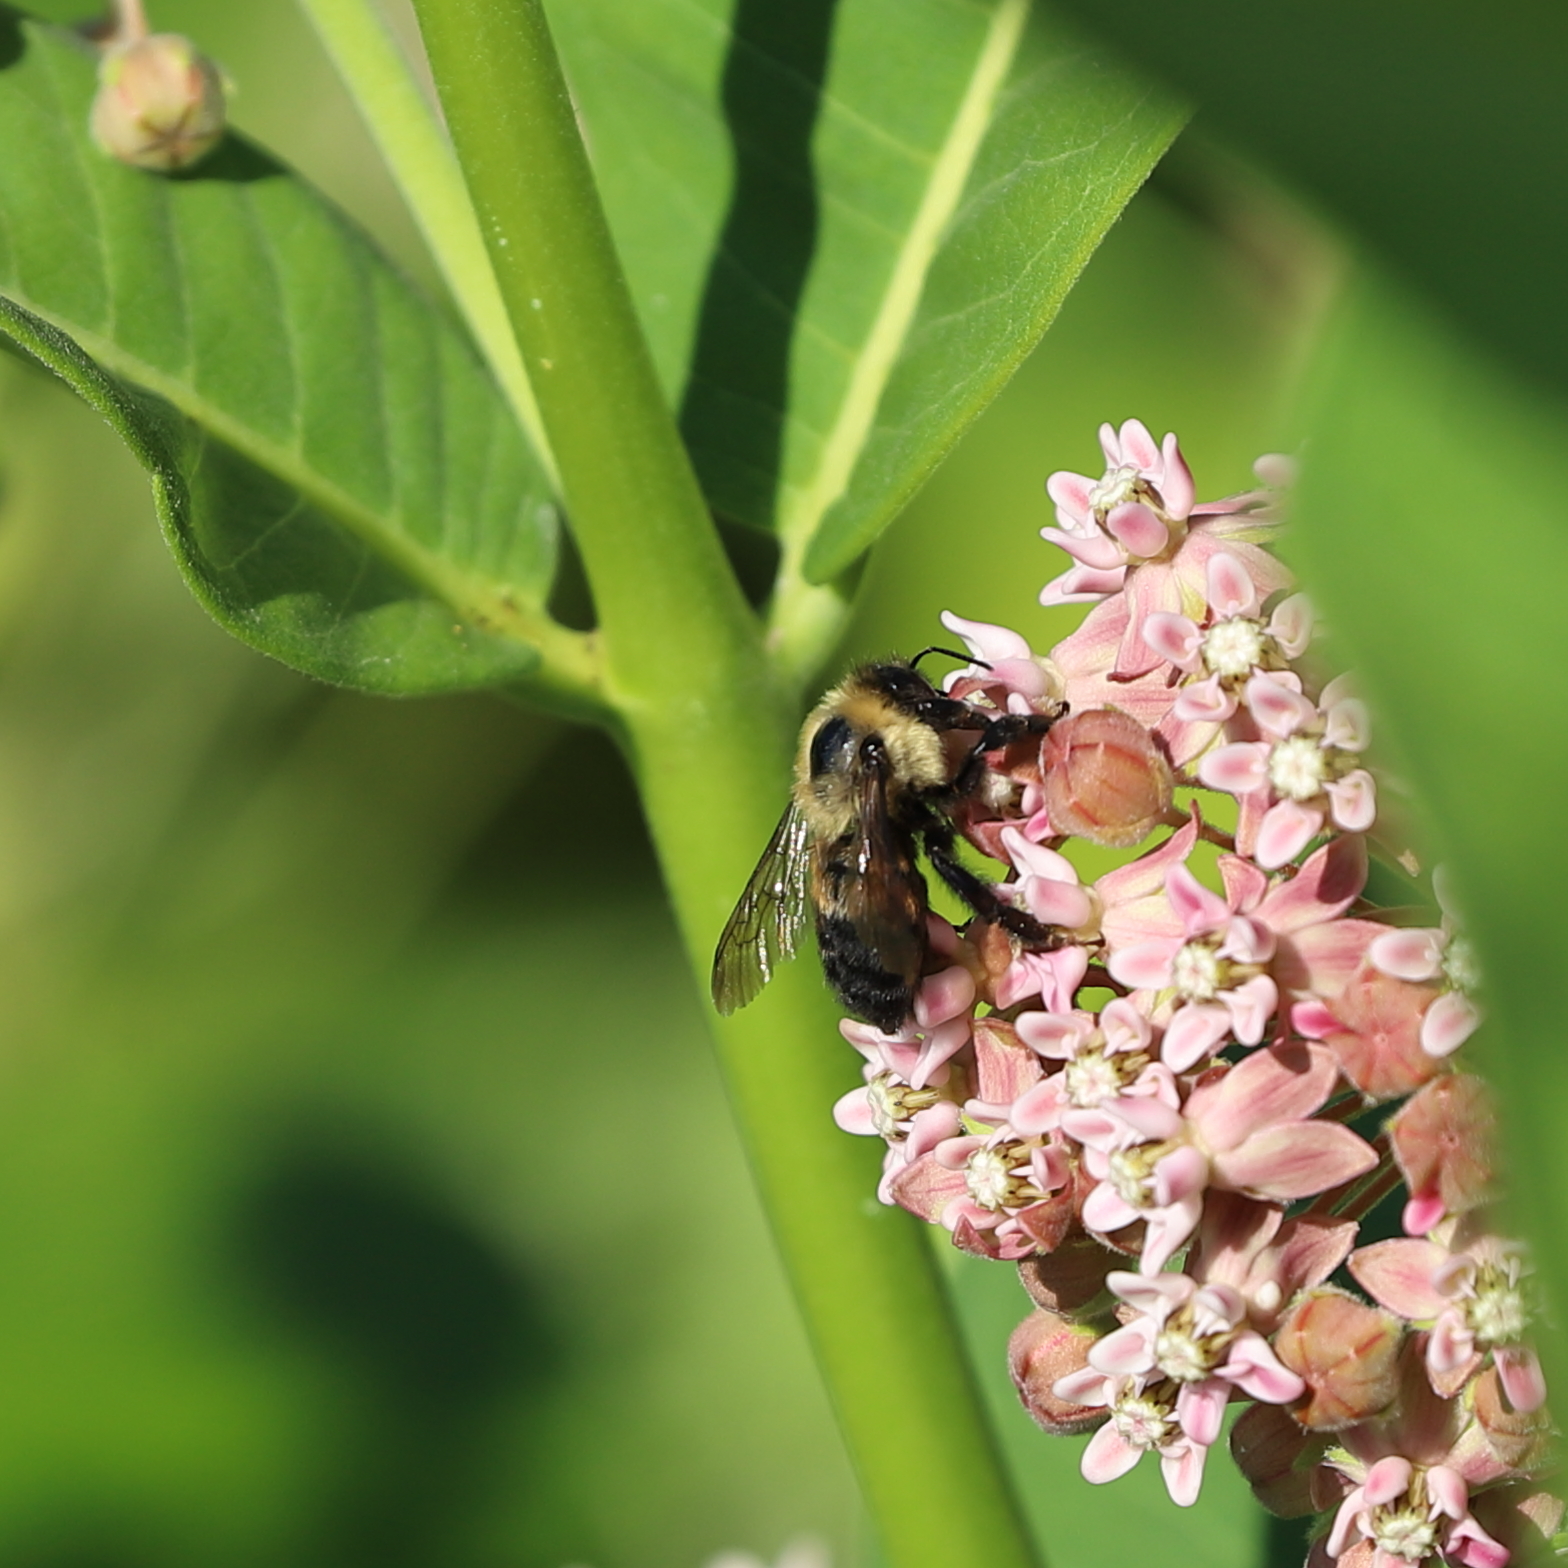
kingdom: Animalia
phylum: Arthropoda
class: Insecta
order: Hymenoptera
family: Apidae
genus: Bombus
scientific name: Bombus griseocollis
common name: Brown-belted bumble bee
